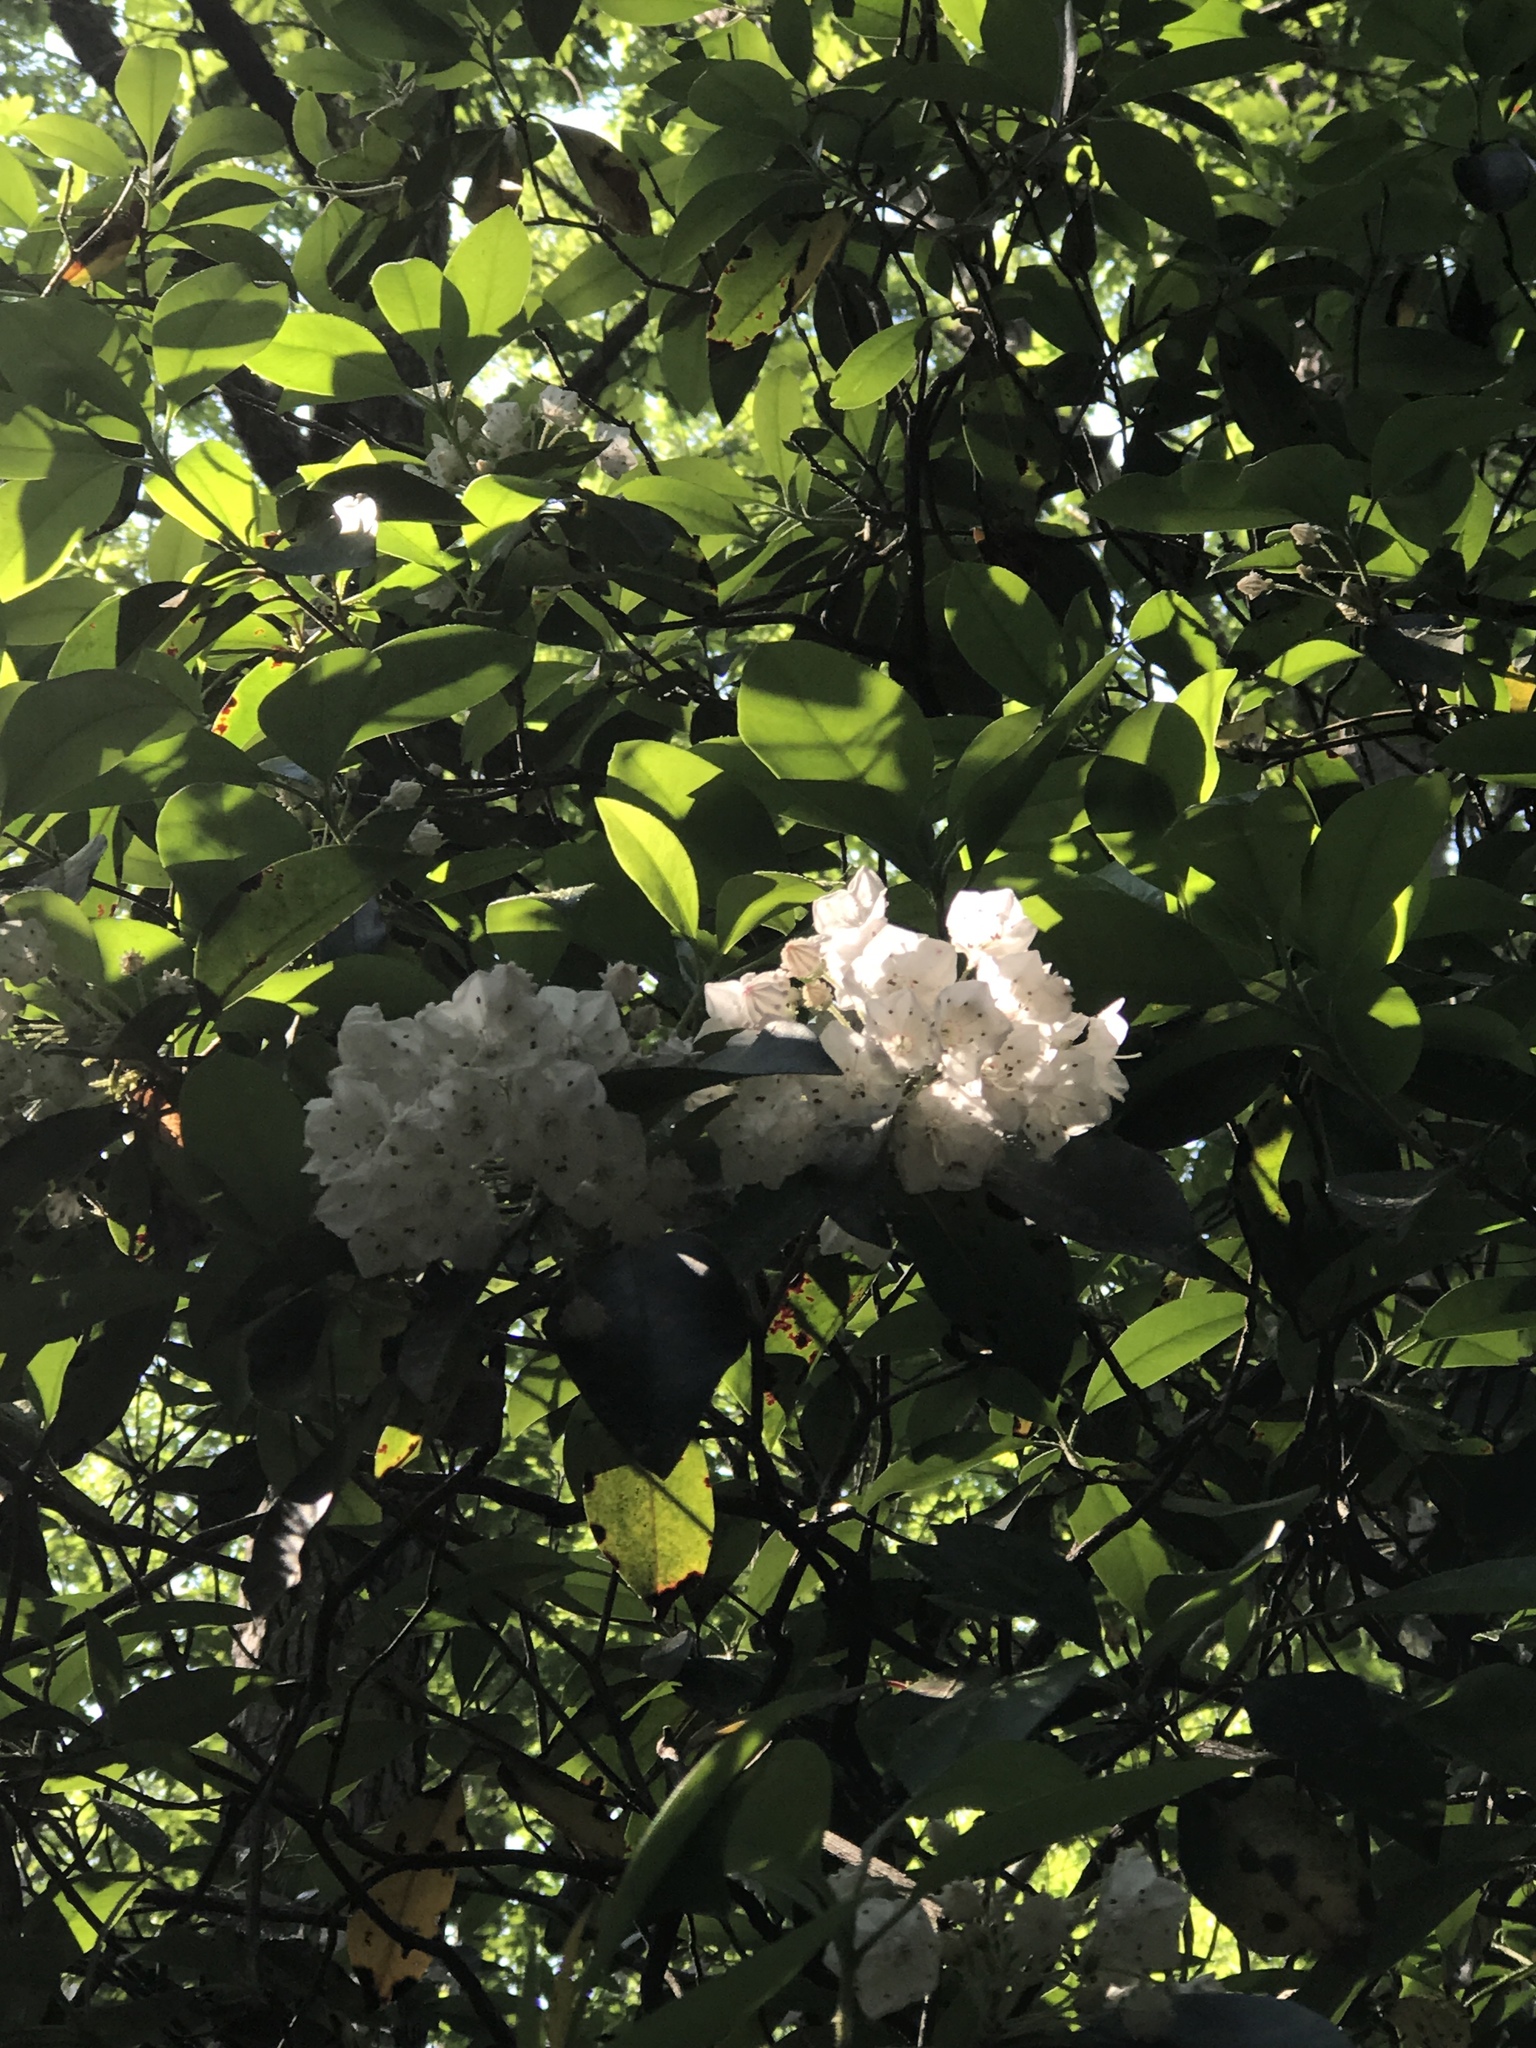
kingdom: Plantae
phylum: Tracheophyta
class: Magnoliopsida
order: Ericales
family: Ericaceae
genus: Kalmia
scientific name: Kalmia latifolia
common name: Mountain-laurel
